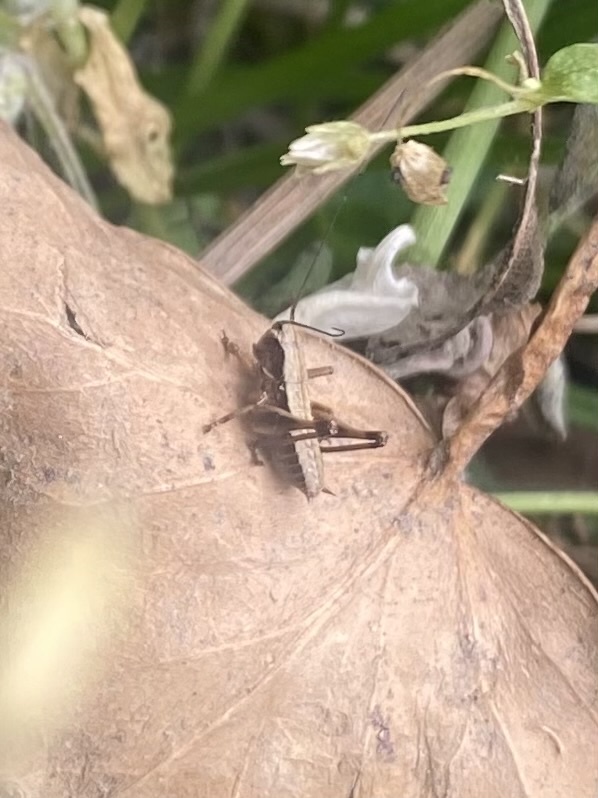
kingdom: Animalia
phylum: Arthropoda
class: Insecta
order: Orthoptera
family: Tettigoniidae
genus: Pholidoptera
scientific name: Pholidoptera griseoaptera
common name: Dark bush-cricket
